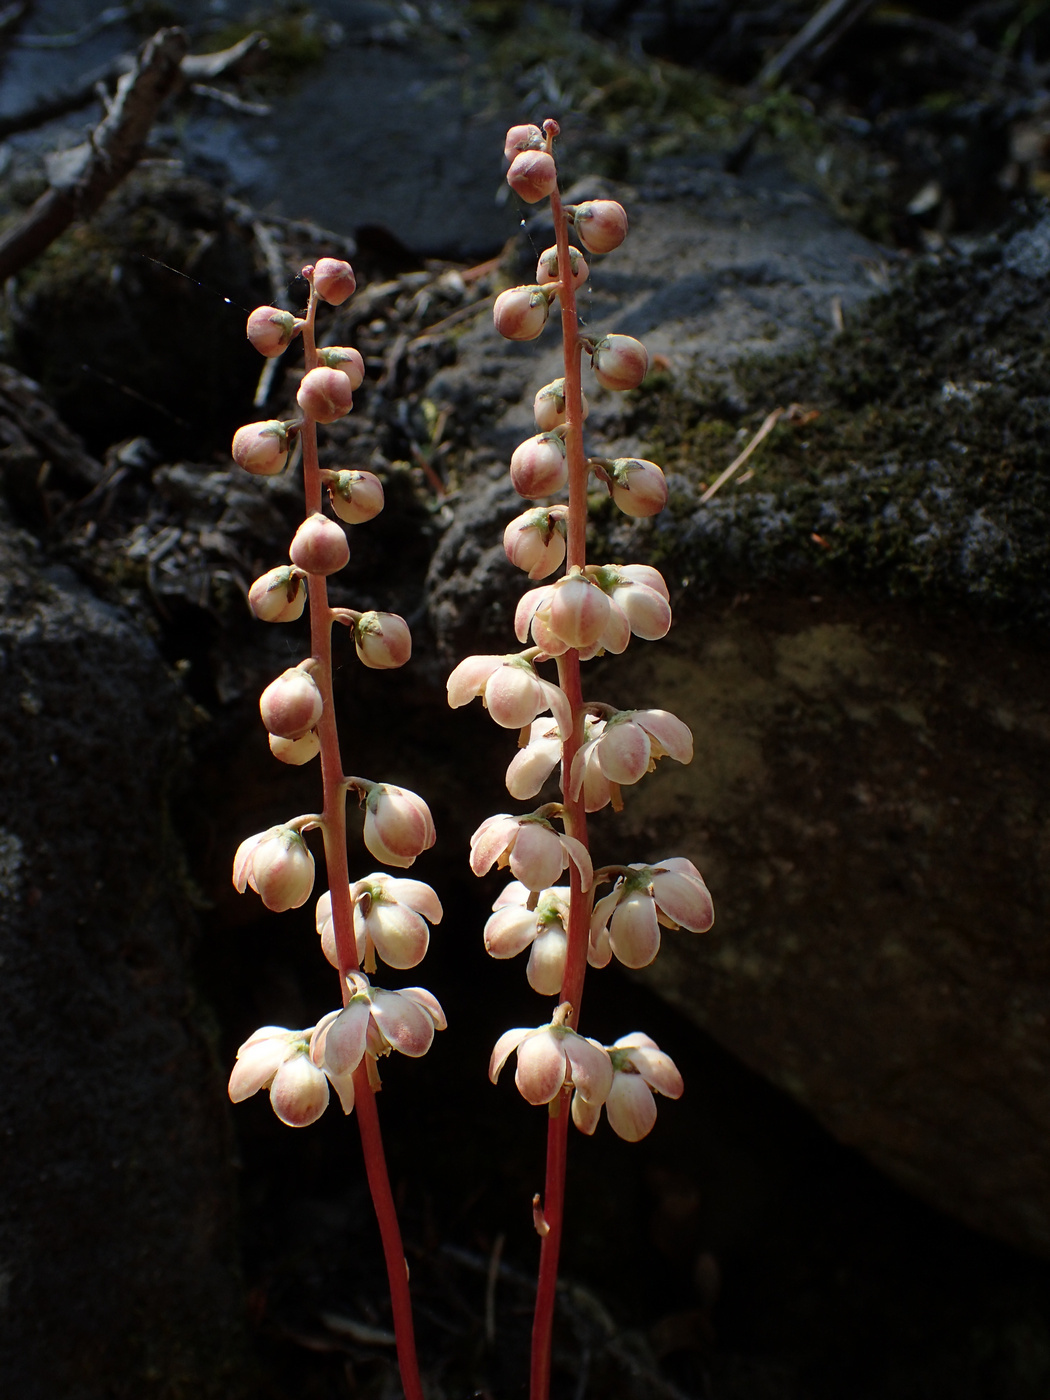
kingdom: Plantae
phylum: Tracheophyta
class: Magnoliopsida
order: Ericales
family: Ericaceae
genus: Pyrola
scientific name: Pyrola aphylla
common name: Leafless wintergreen
